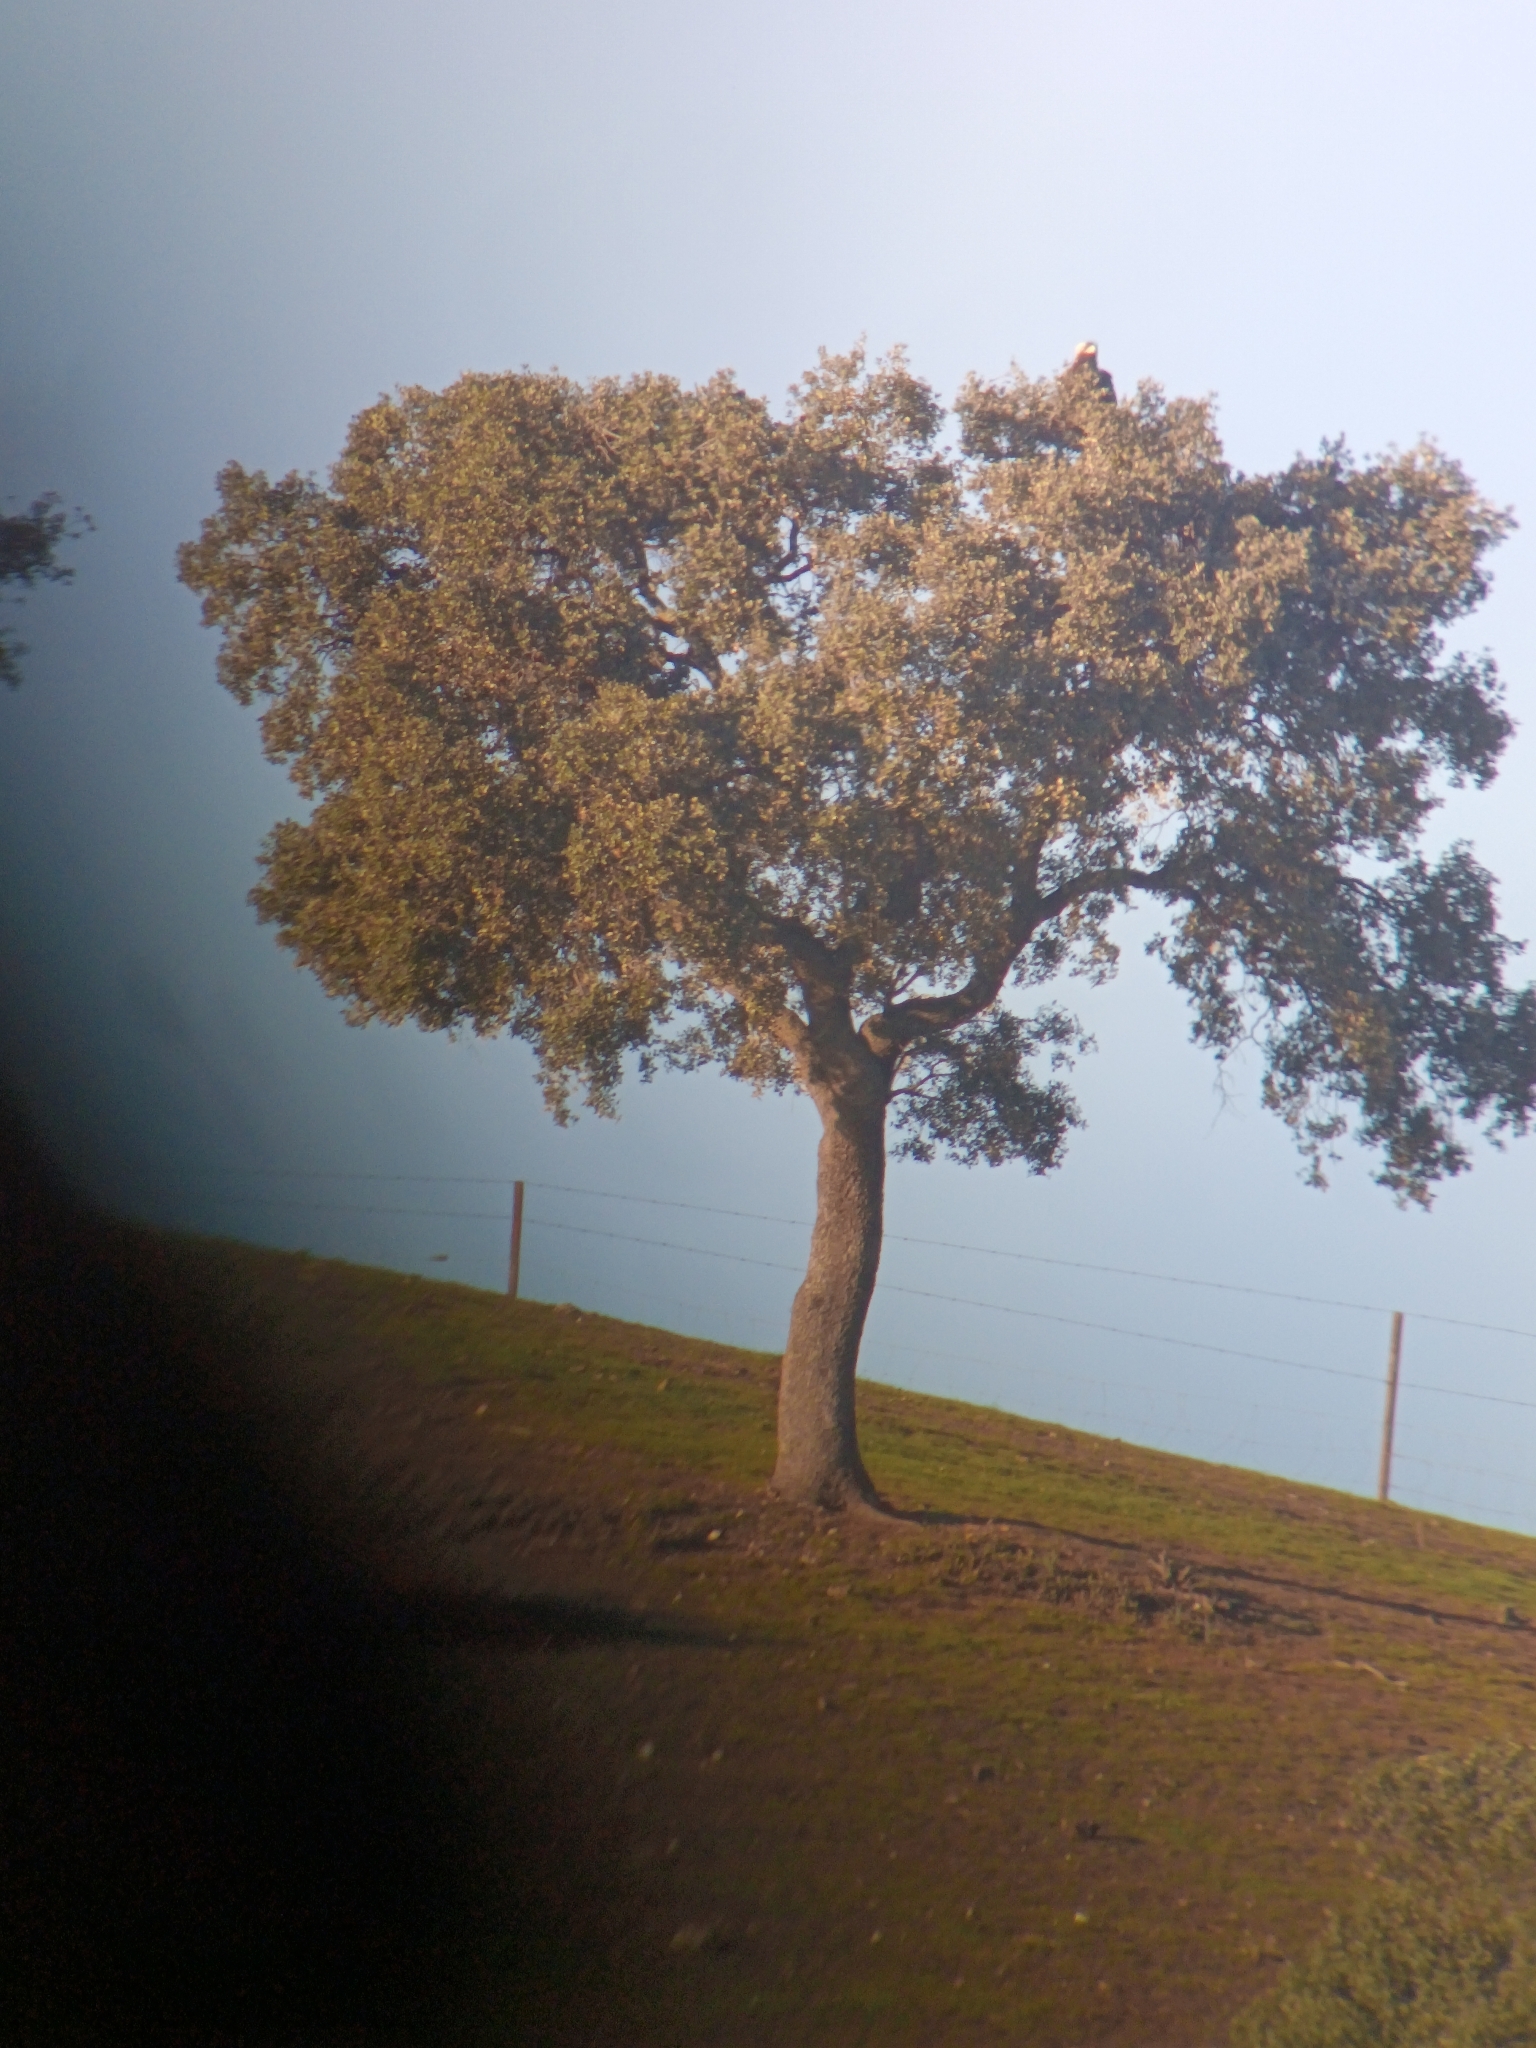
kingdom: Animalia
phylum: Chordata
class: Aves
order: Accipitriformes
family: Accipitridae
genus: Aquila
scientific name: Aquila adalberti
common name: Spanish imperial eagle
